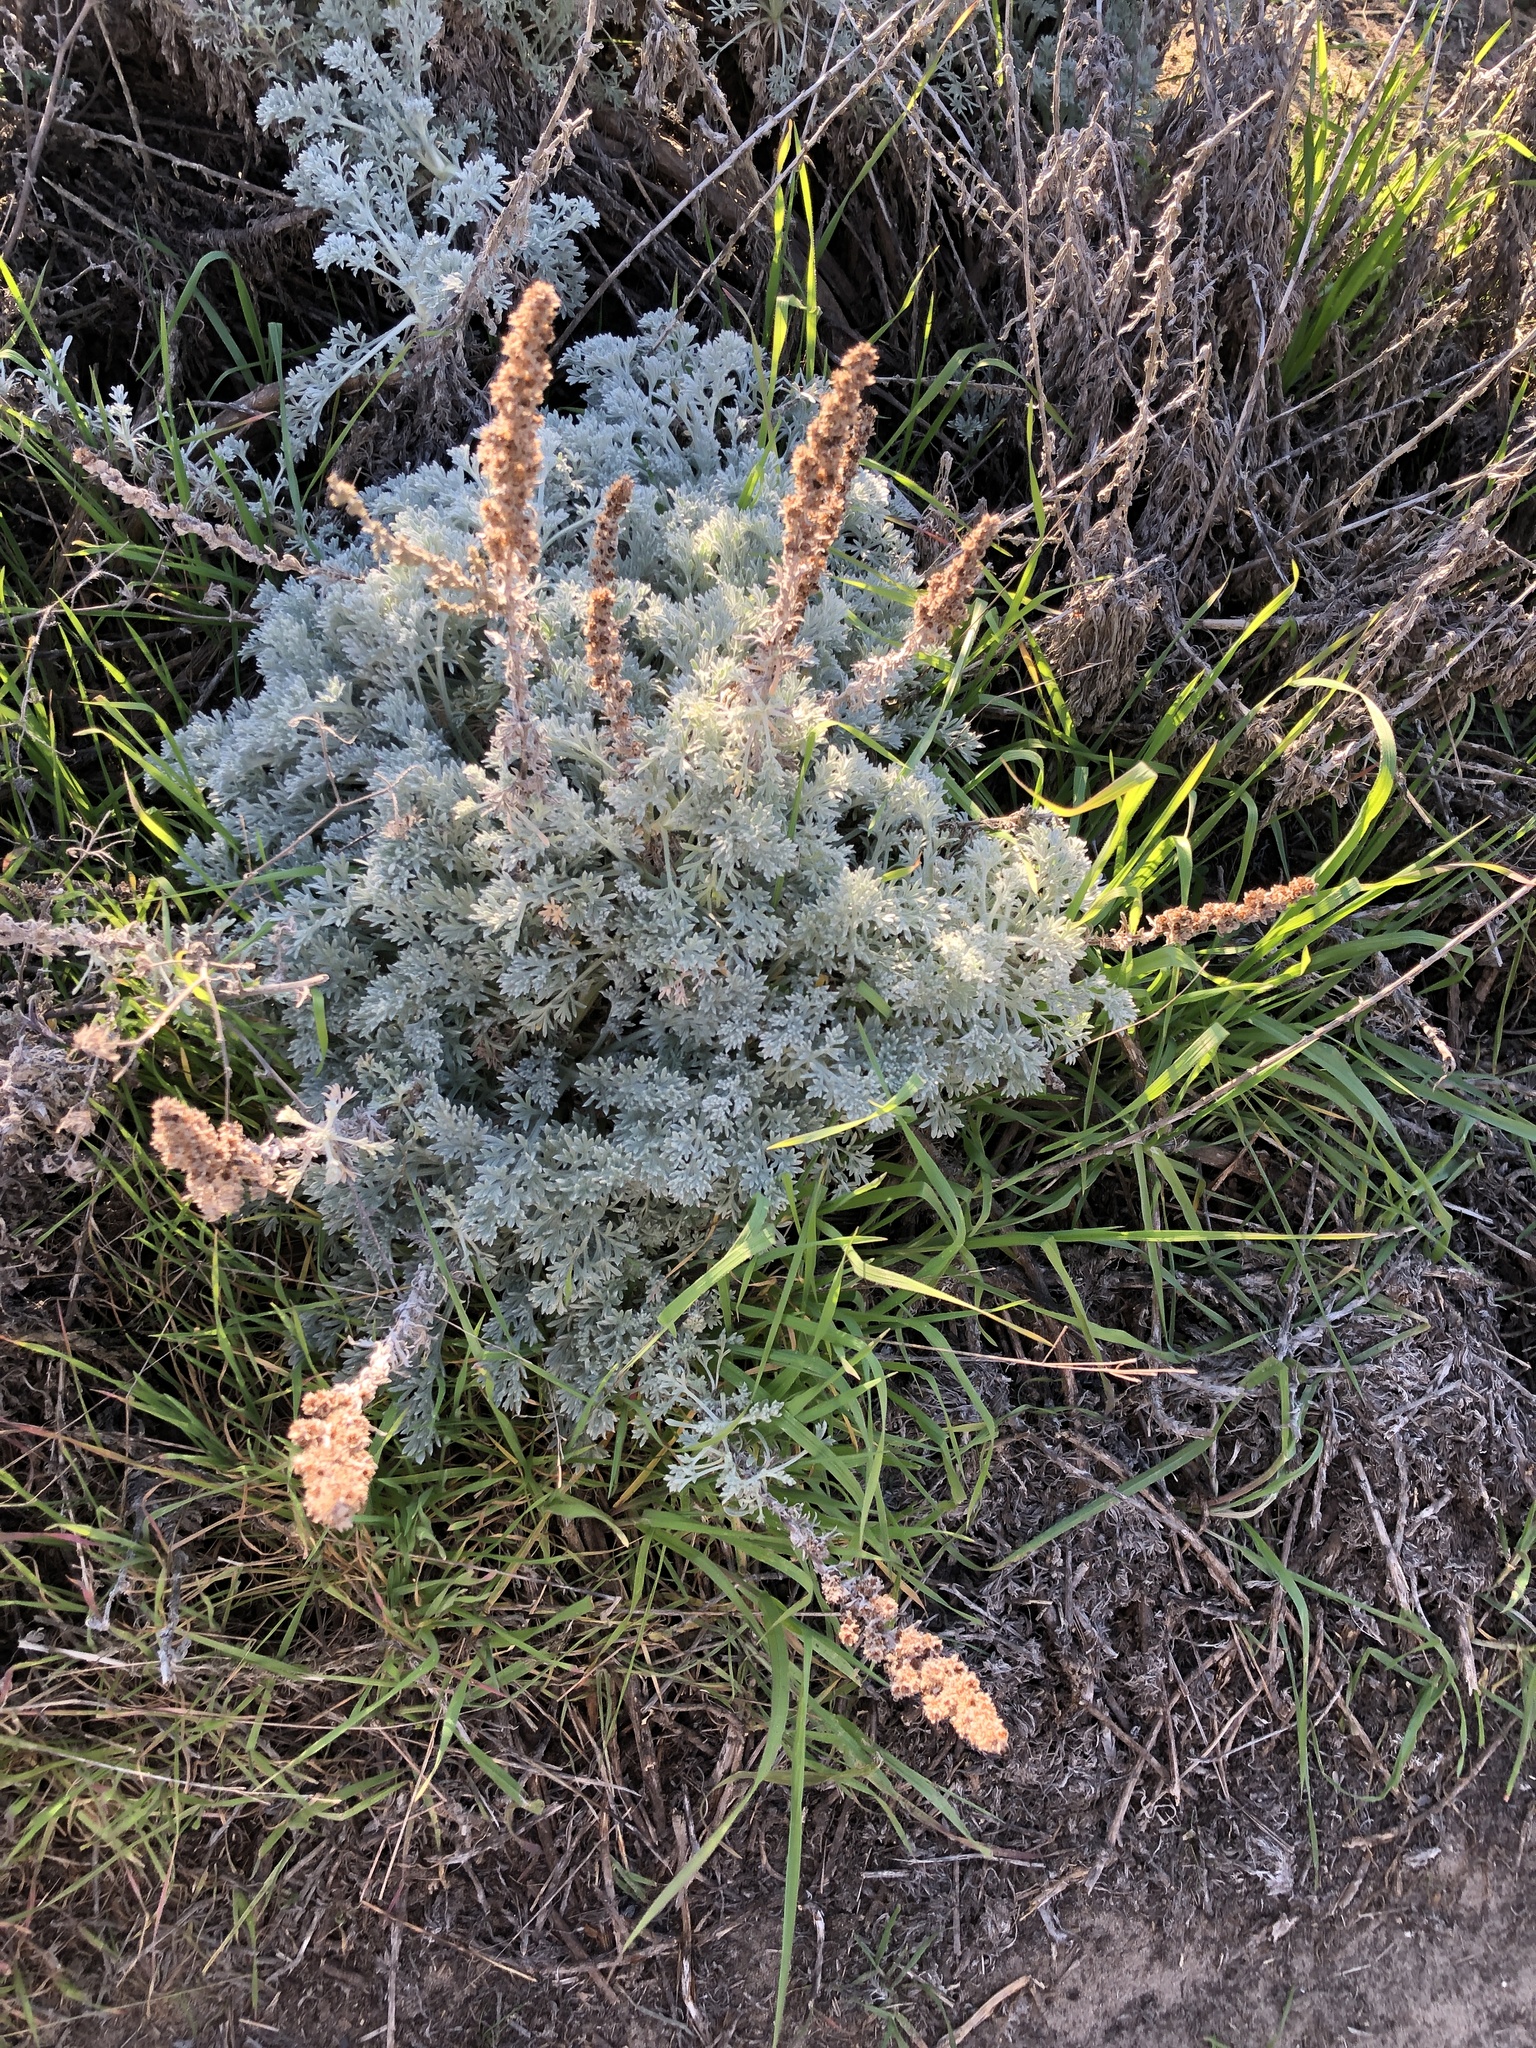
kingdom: Plantae
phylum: Tracheophyta
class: Magnoliopsida
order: Asterales
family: Asteraceae
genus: Artemisia
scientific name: Artemisia pycnocephala
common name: Coastal sagewort
